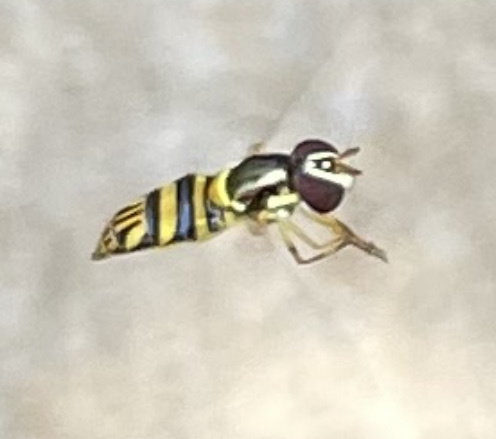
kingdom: Animalia
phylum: Arthropoda
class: Insecta
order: Diptera
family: Syrphidae
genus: Allograpta
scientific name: Allograpta obliqua
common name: Common oblique syrphid
